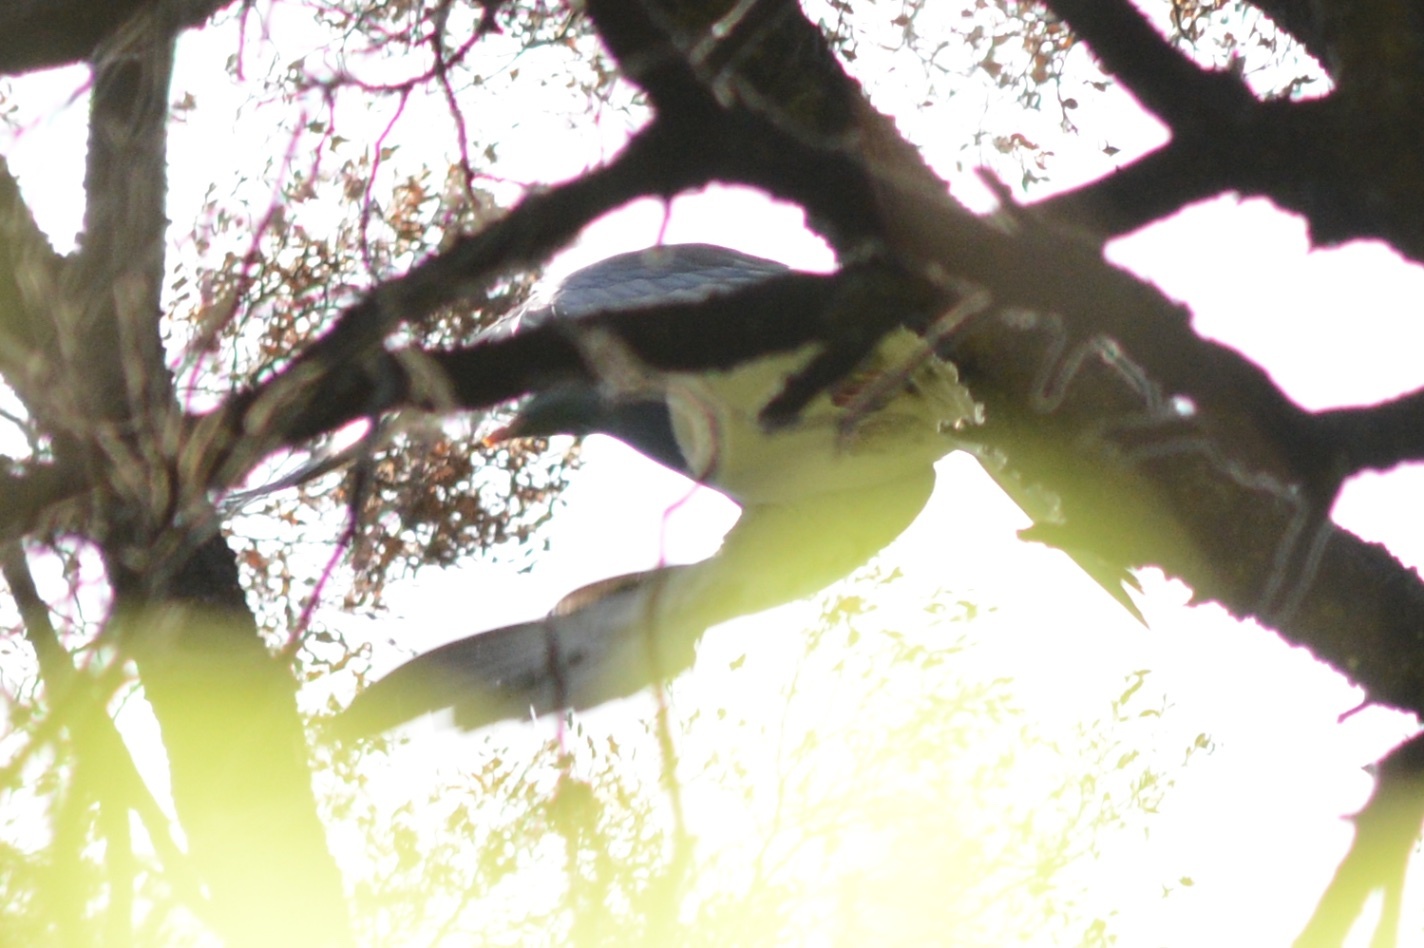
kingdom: Animalia
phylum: Chordata
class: Aves
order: Columbiformes
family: Columbidae
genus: Hemiphaga
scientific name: Hemiphaga novaeseelandiae
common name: New zealand pigeon
